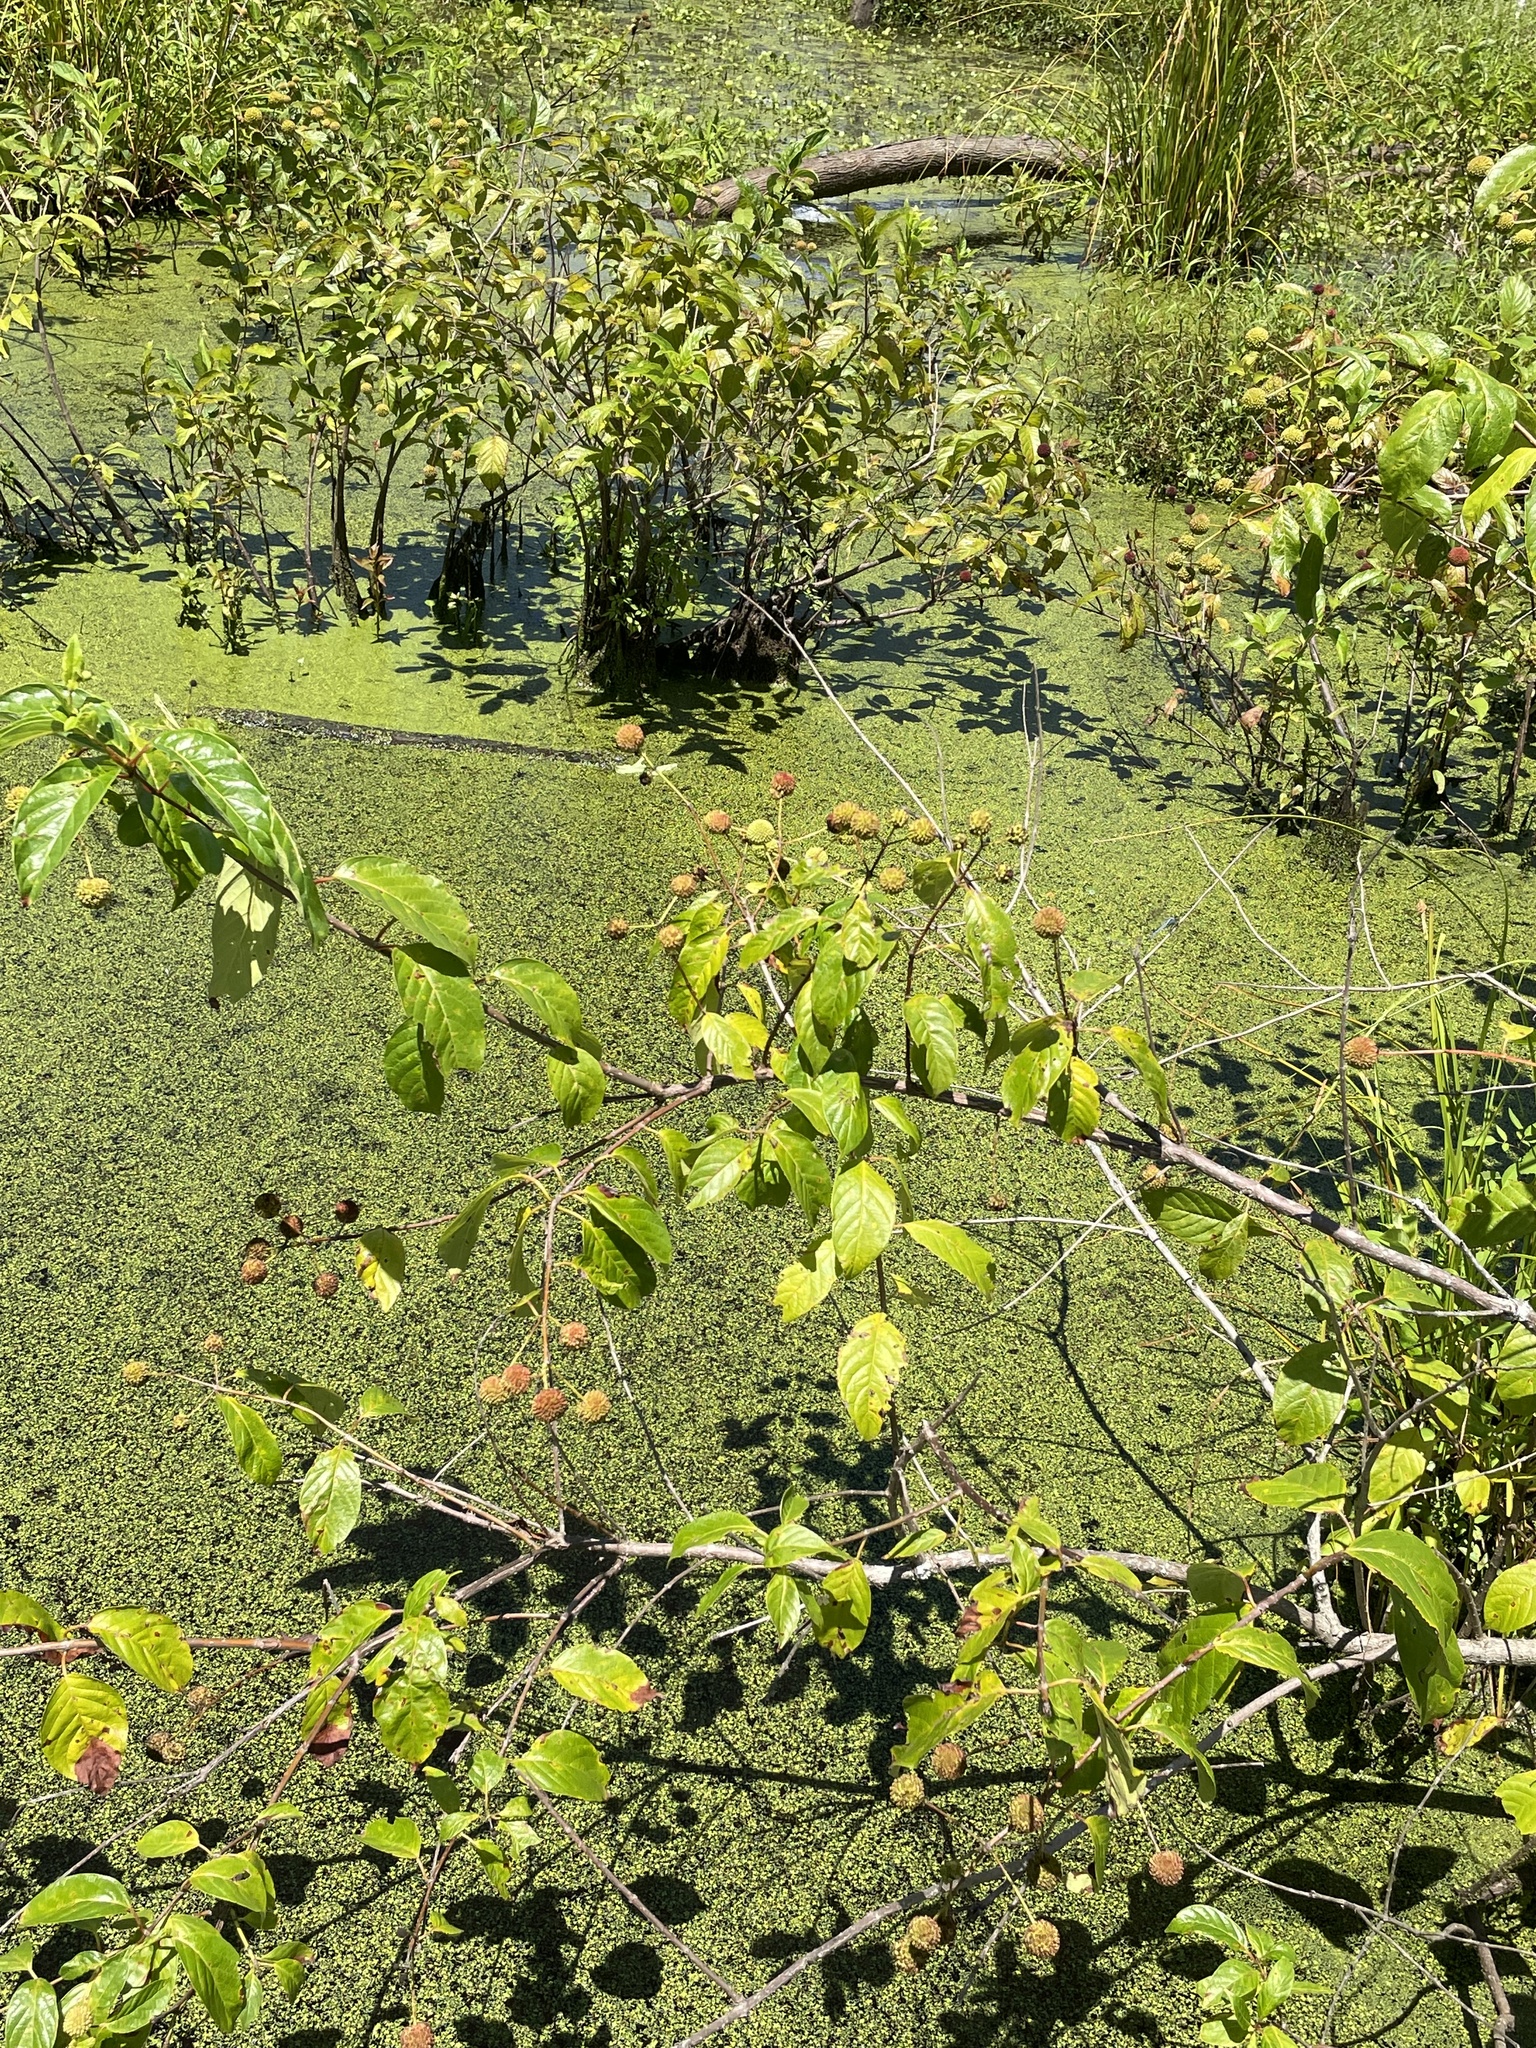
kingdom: Plantae
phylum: Tracheophyta
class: Magnoliopsida
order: Gentianales
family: Rubiaceae
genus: Cephalanthus
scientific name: Cephalanthus occidentalis
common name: Button-willow
